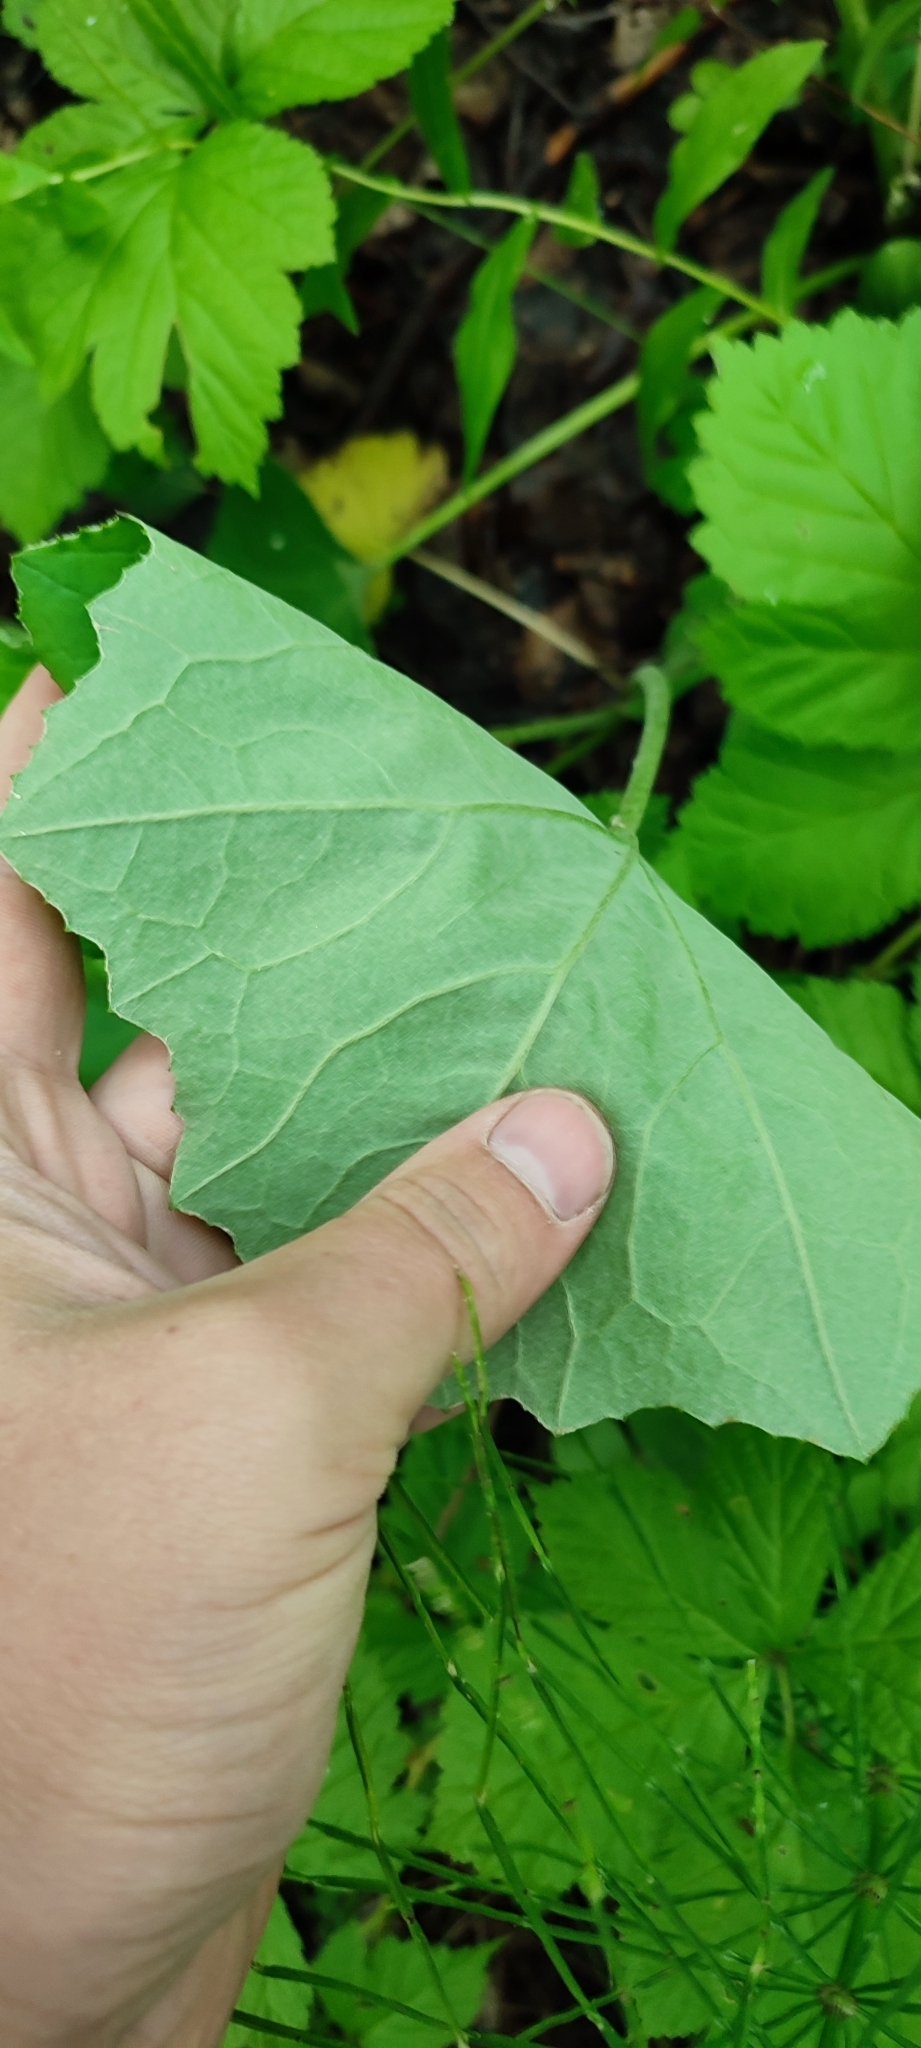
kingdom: Plantae
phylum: Tracheophyta
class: Magnoliopsida
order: Asterales
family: Asteraceae
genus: Tussilago
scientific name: Tussilago farfara
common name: Coltsfoot
